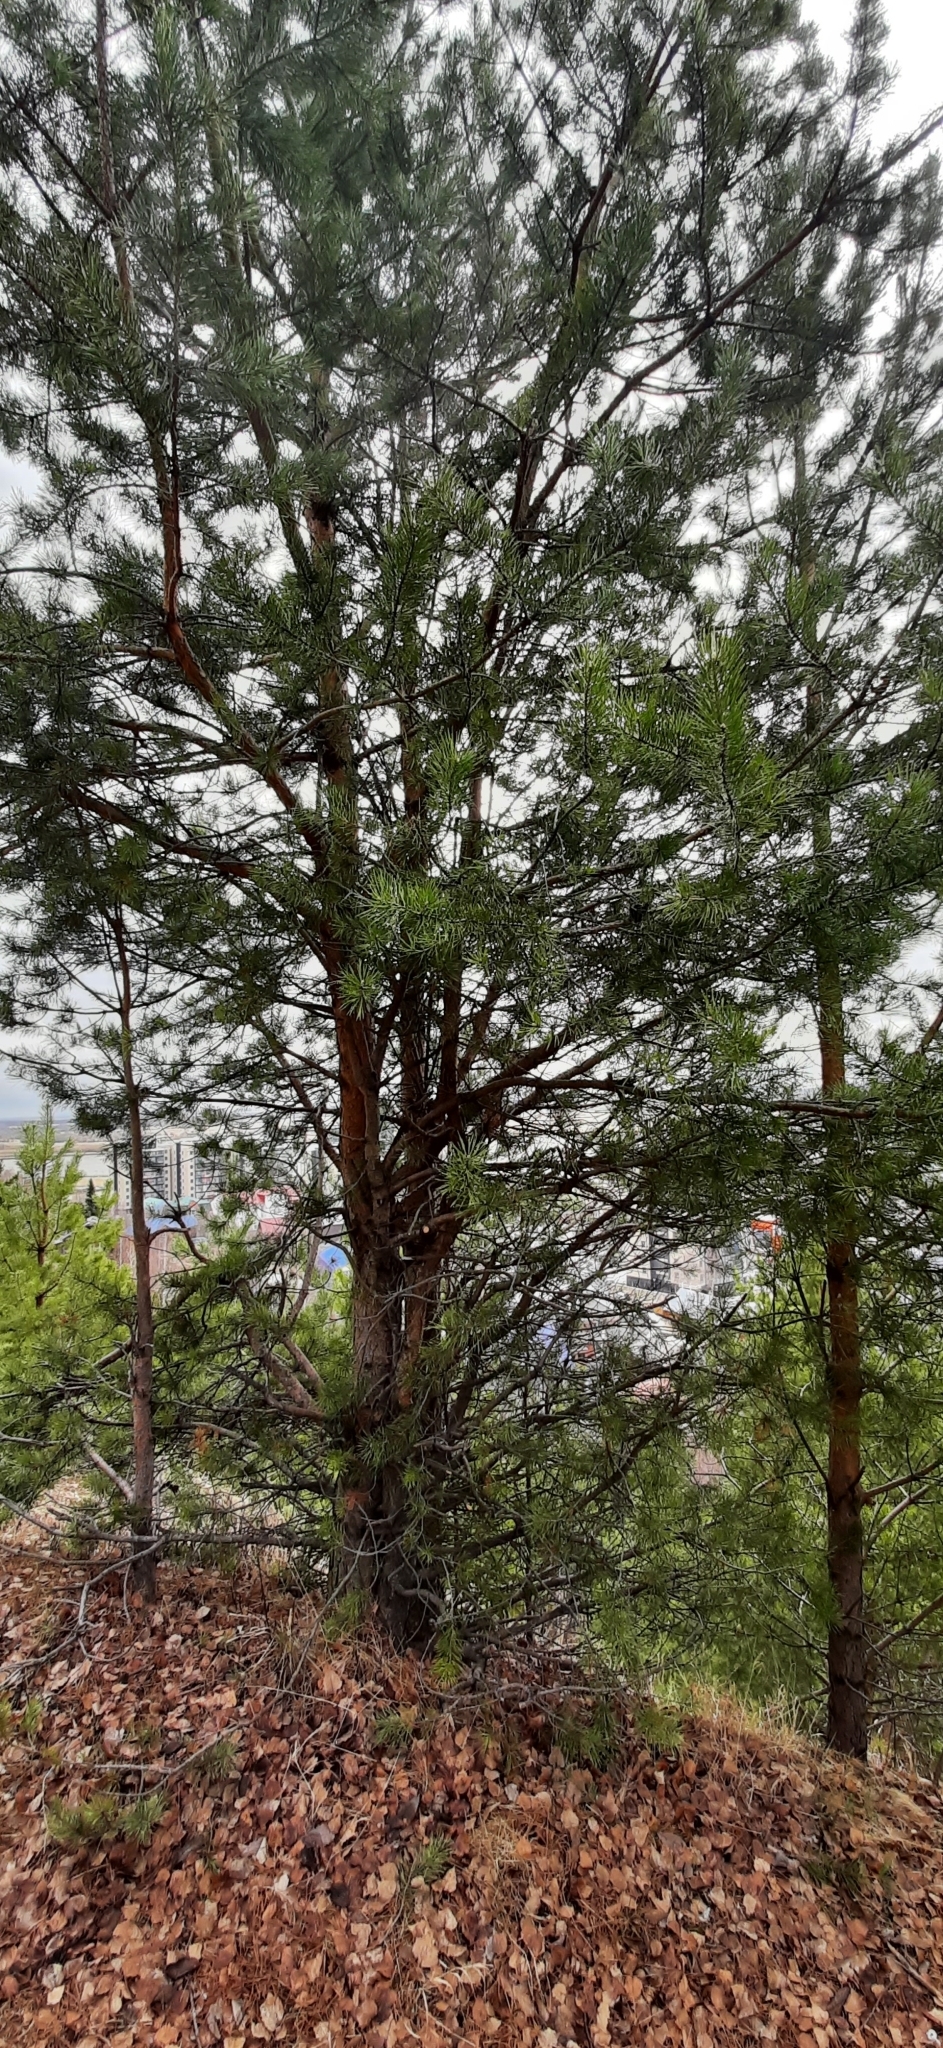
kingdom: Plantae
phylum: Tracheophyta
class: Pinopsida
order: Pinales
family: Pinaceae
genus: Pinus
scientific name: Pinus sylvestris
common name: Scots pine
